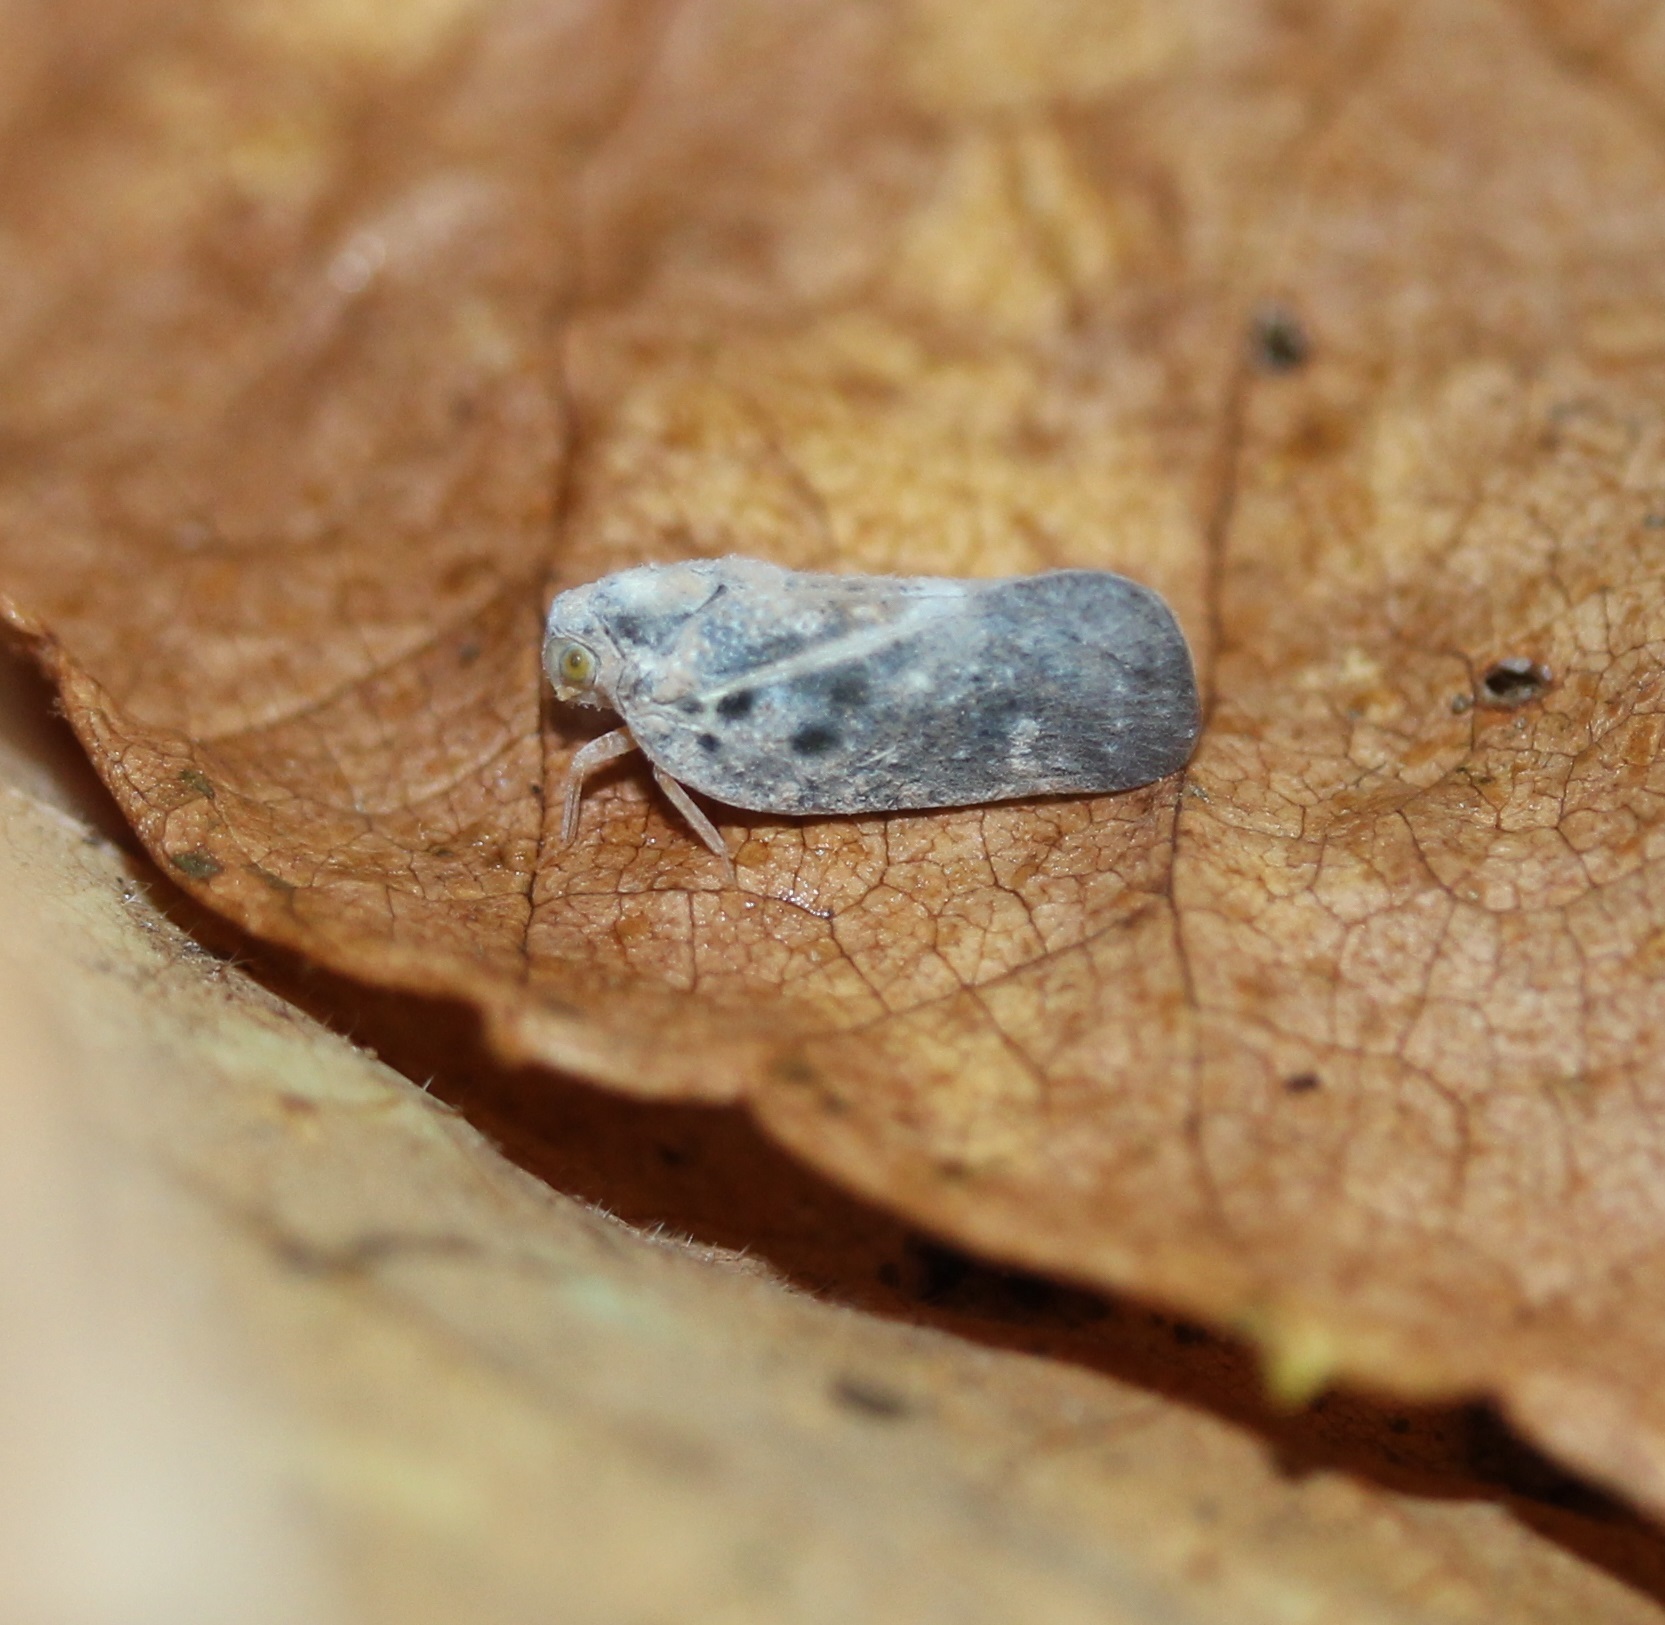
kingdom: Animalia
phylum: Arthropoda
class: Insecta
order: Hemiptera
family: Flatidae
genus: Metcalfa
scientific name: Metcalfa pruinosa
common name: Citrus flatid planthopper
